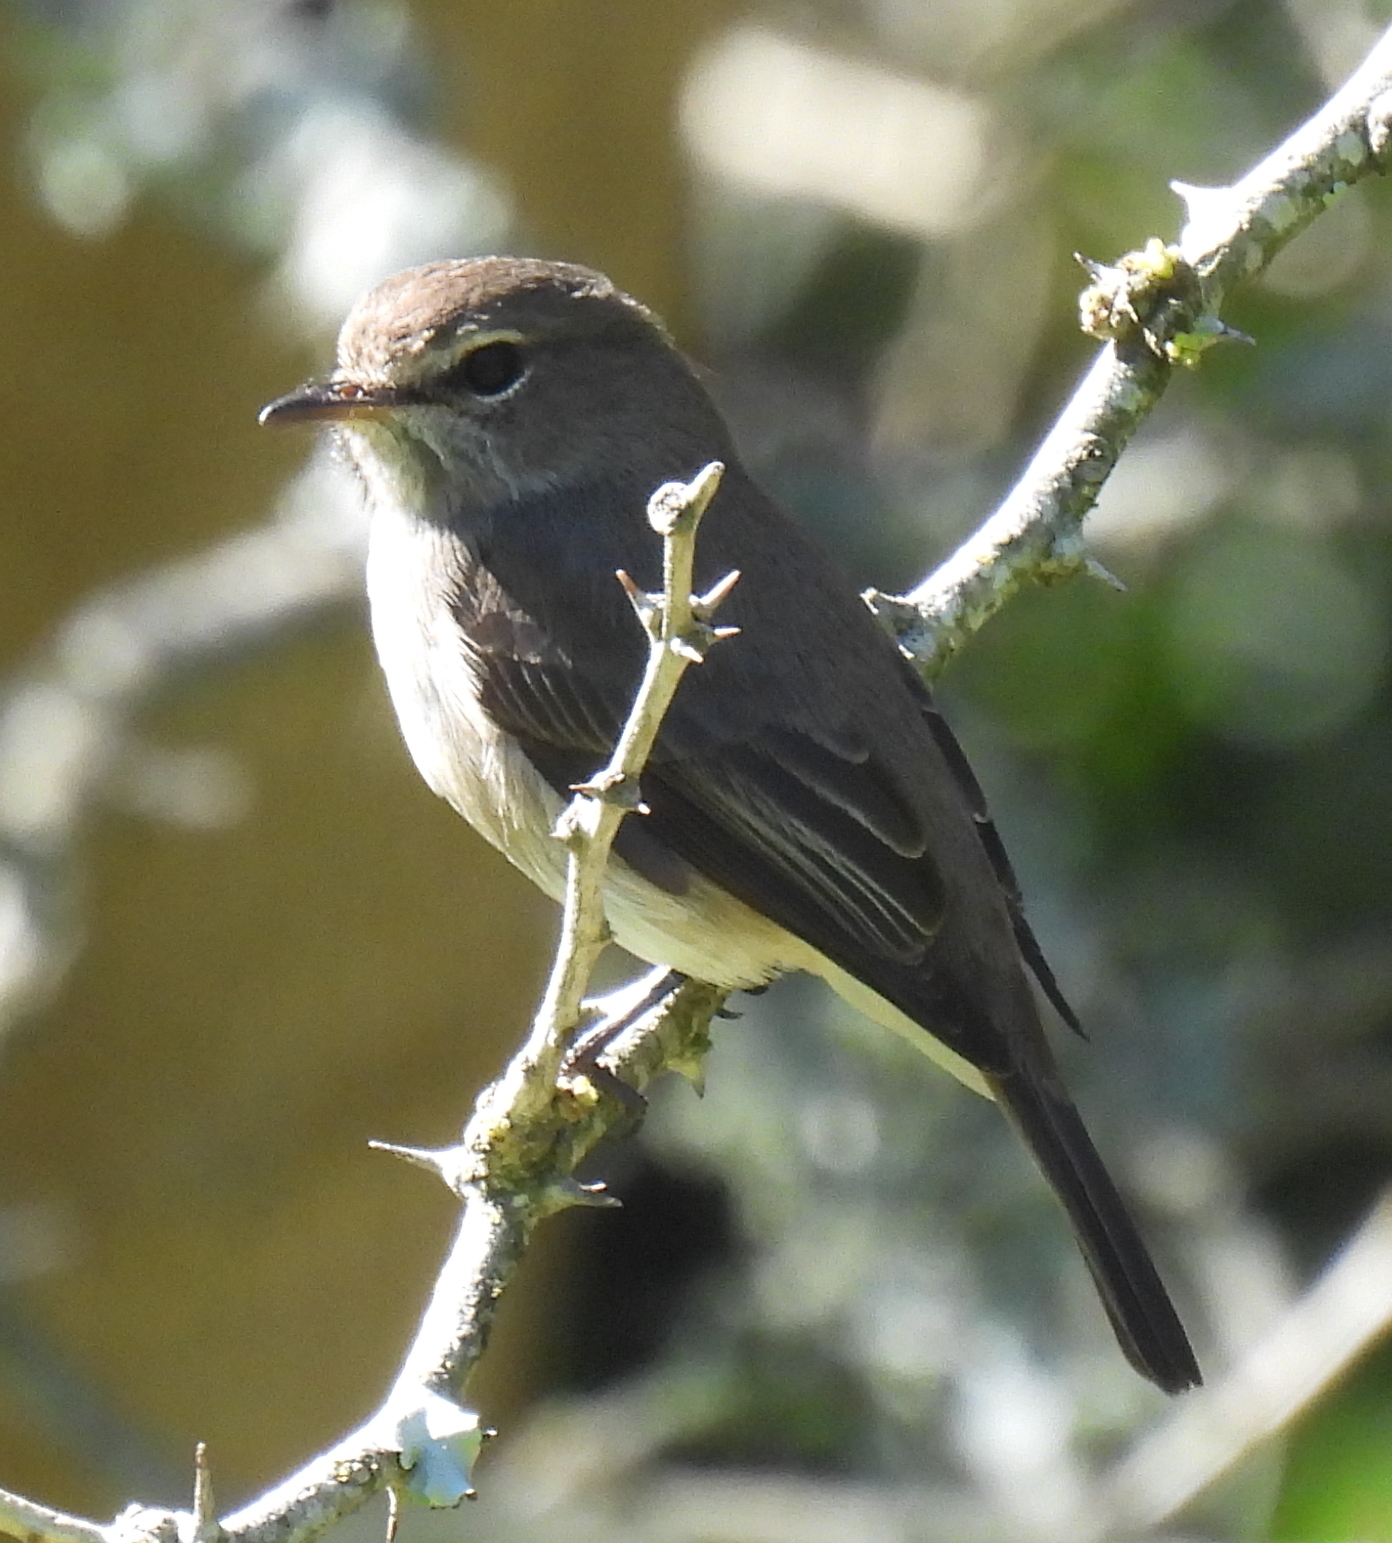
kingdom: Animalia
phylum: Chordata
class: Aves
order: Passeriformes
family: Muscicapidae
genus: Muscicapa
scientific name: Muscicapa adusta
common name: African dusky flycatcher
